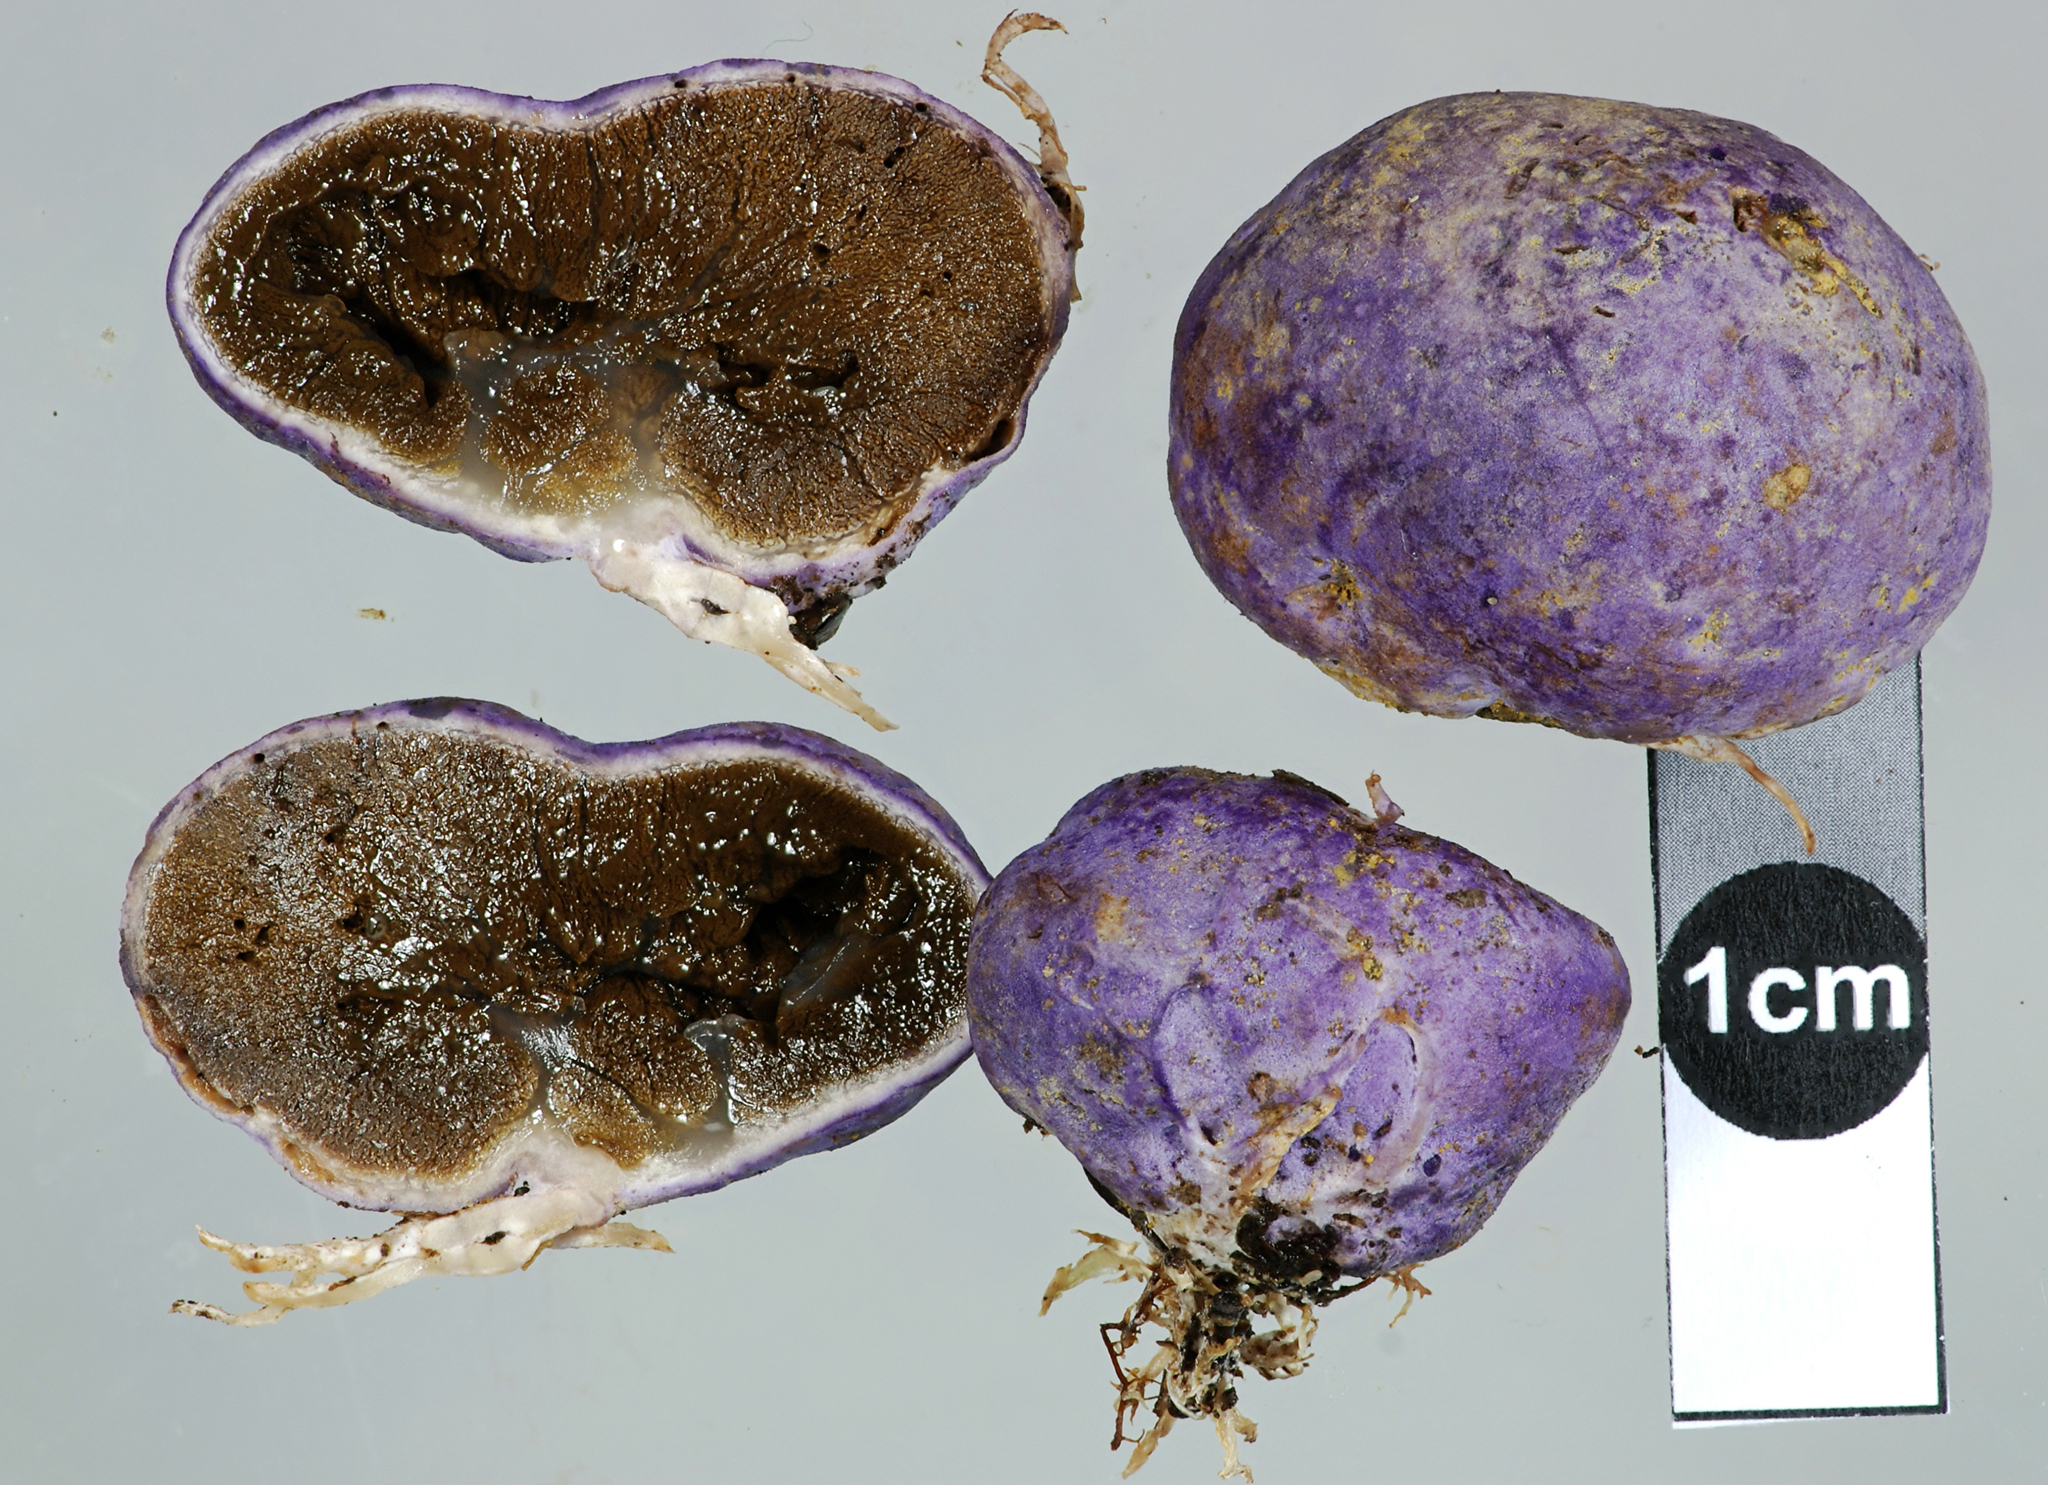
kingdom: Fungi
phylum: Basidiomycota
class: Agaricomycetes
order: Hysterangiales
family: Gallaceaceae
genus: Gallacea
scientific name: Gallacea scleroderma
